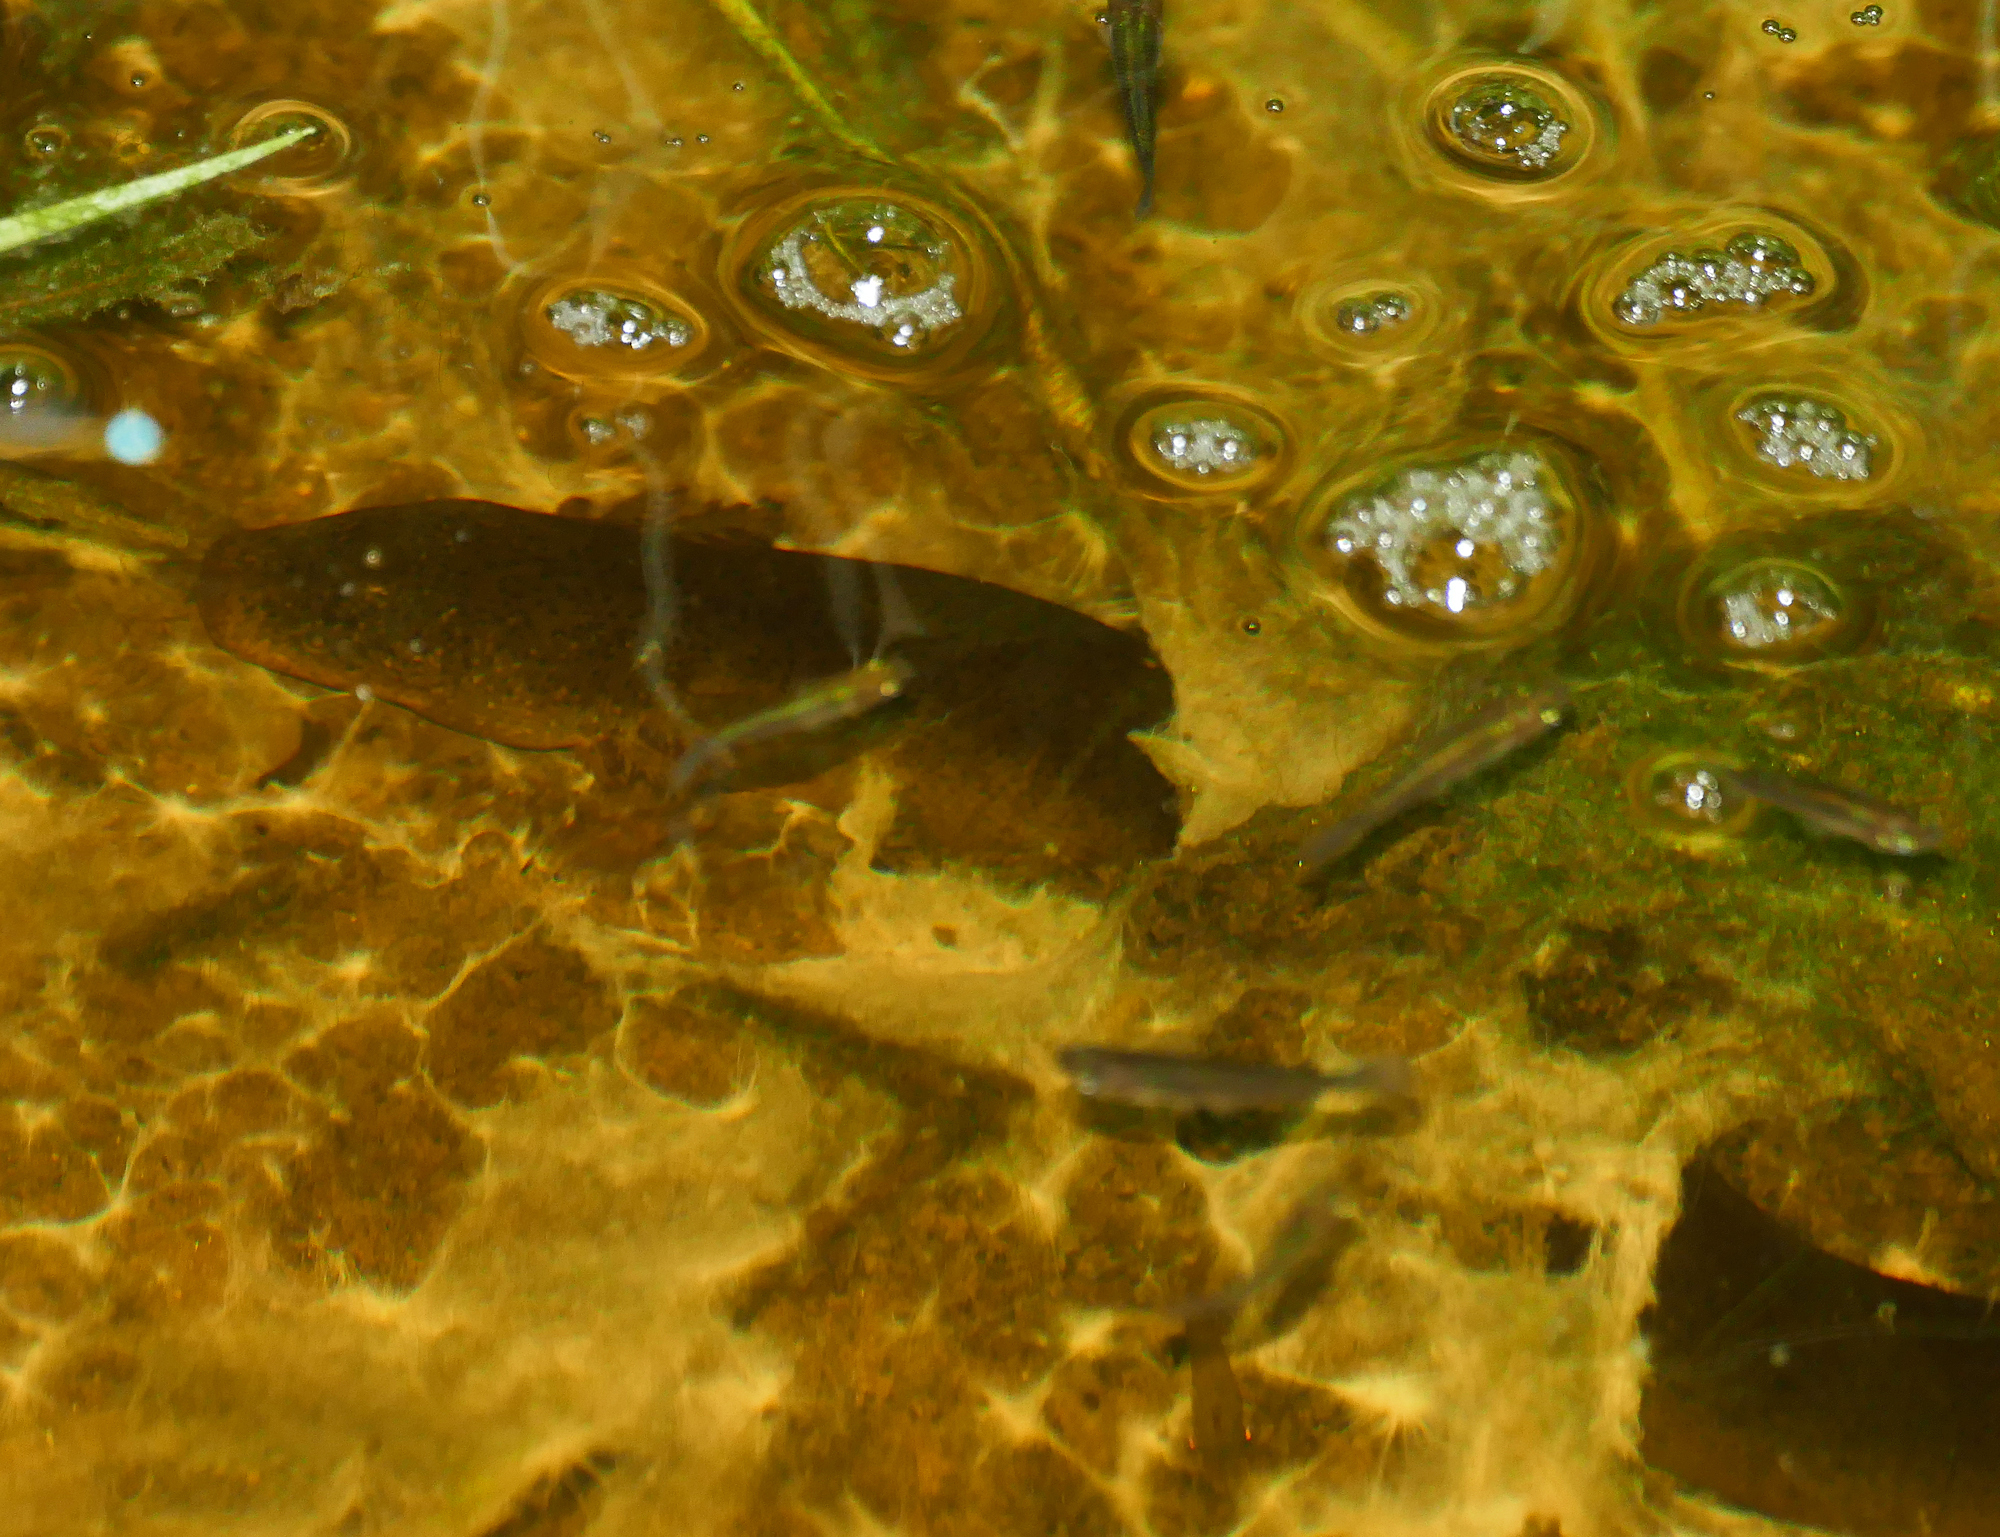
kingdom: Animalia
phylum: Chordata
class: Amphibia
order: Caudata
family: Sirenidae
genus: Siren
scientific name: Siren intermedia
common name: Lesser siren
